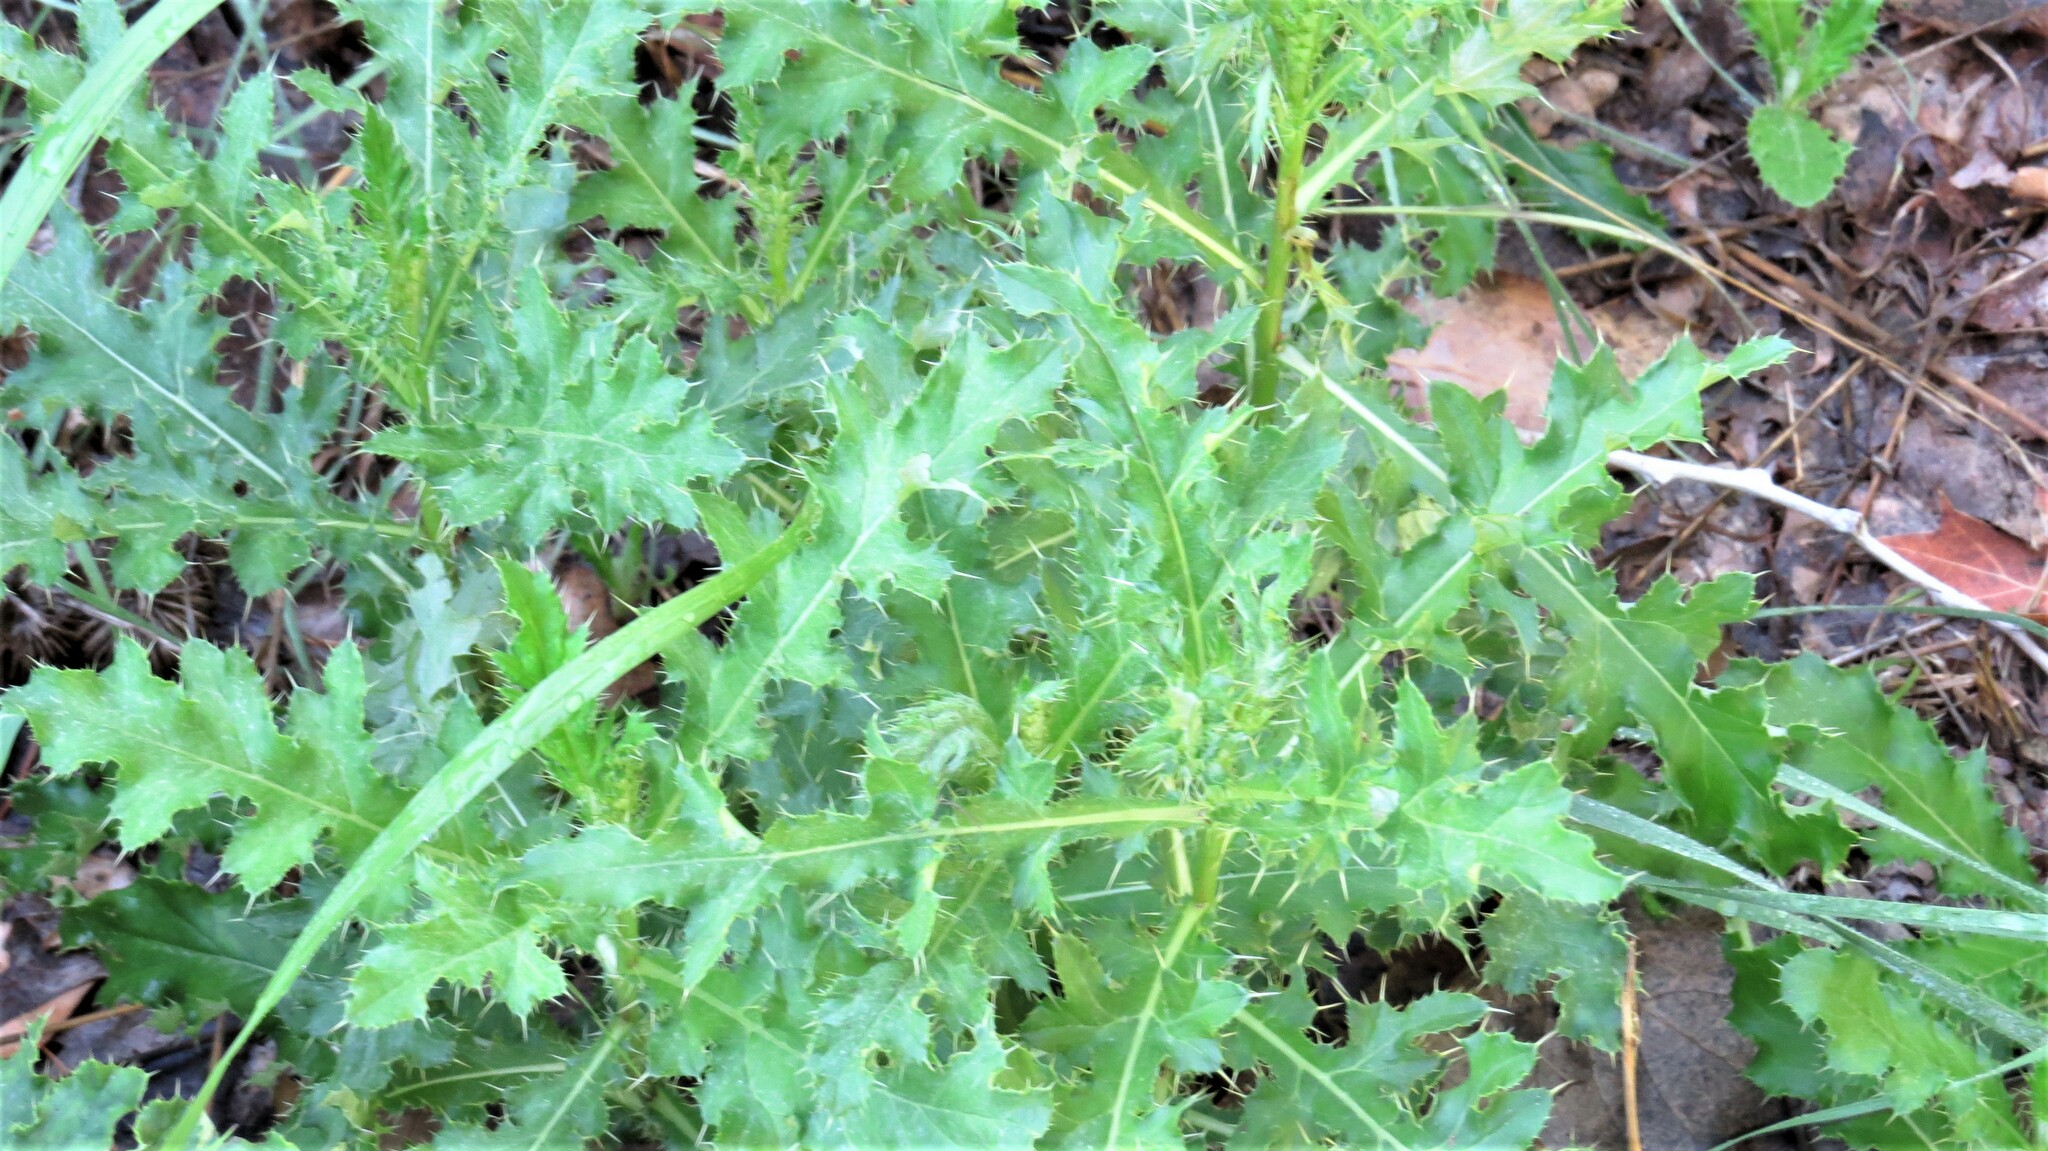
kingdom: Plantae
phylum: Tracheophyta
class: Magnoliopsida
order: Asterales
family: Asteraceae
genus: Cirsium
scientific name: Cirsium arvense
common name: Creeping thistle
